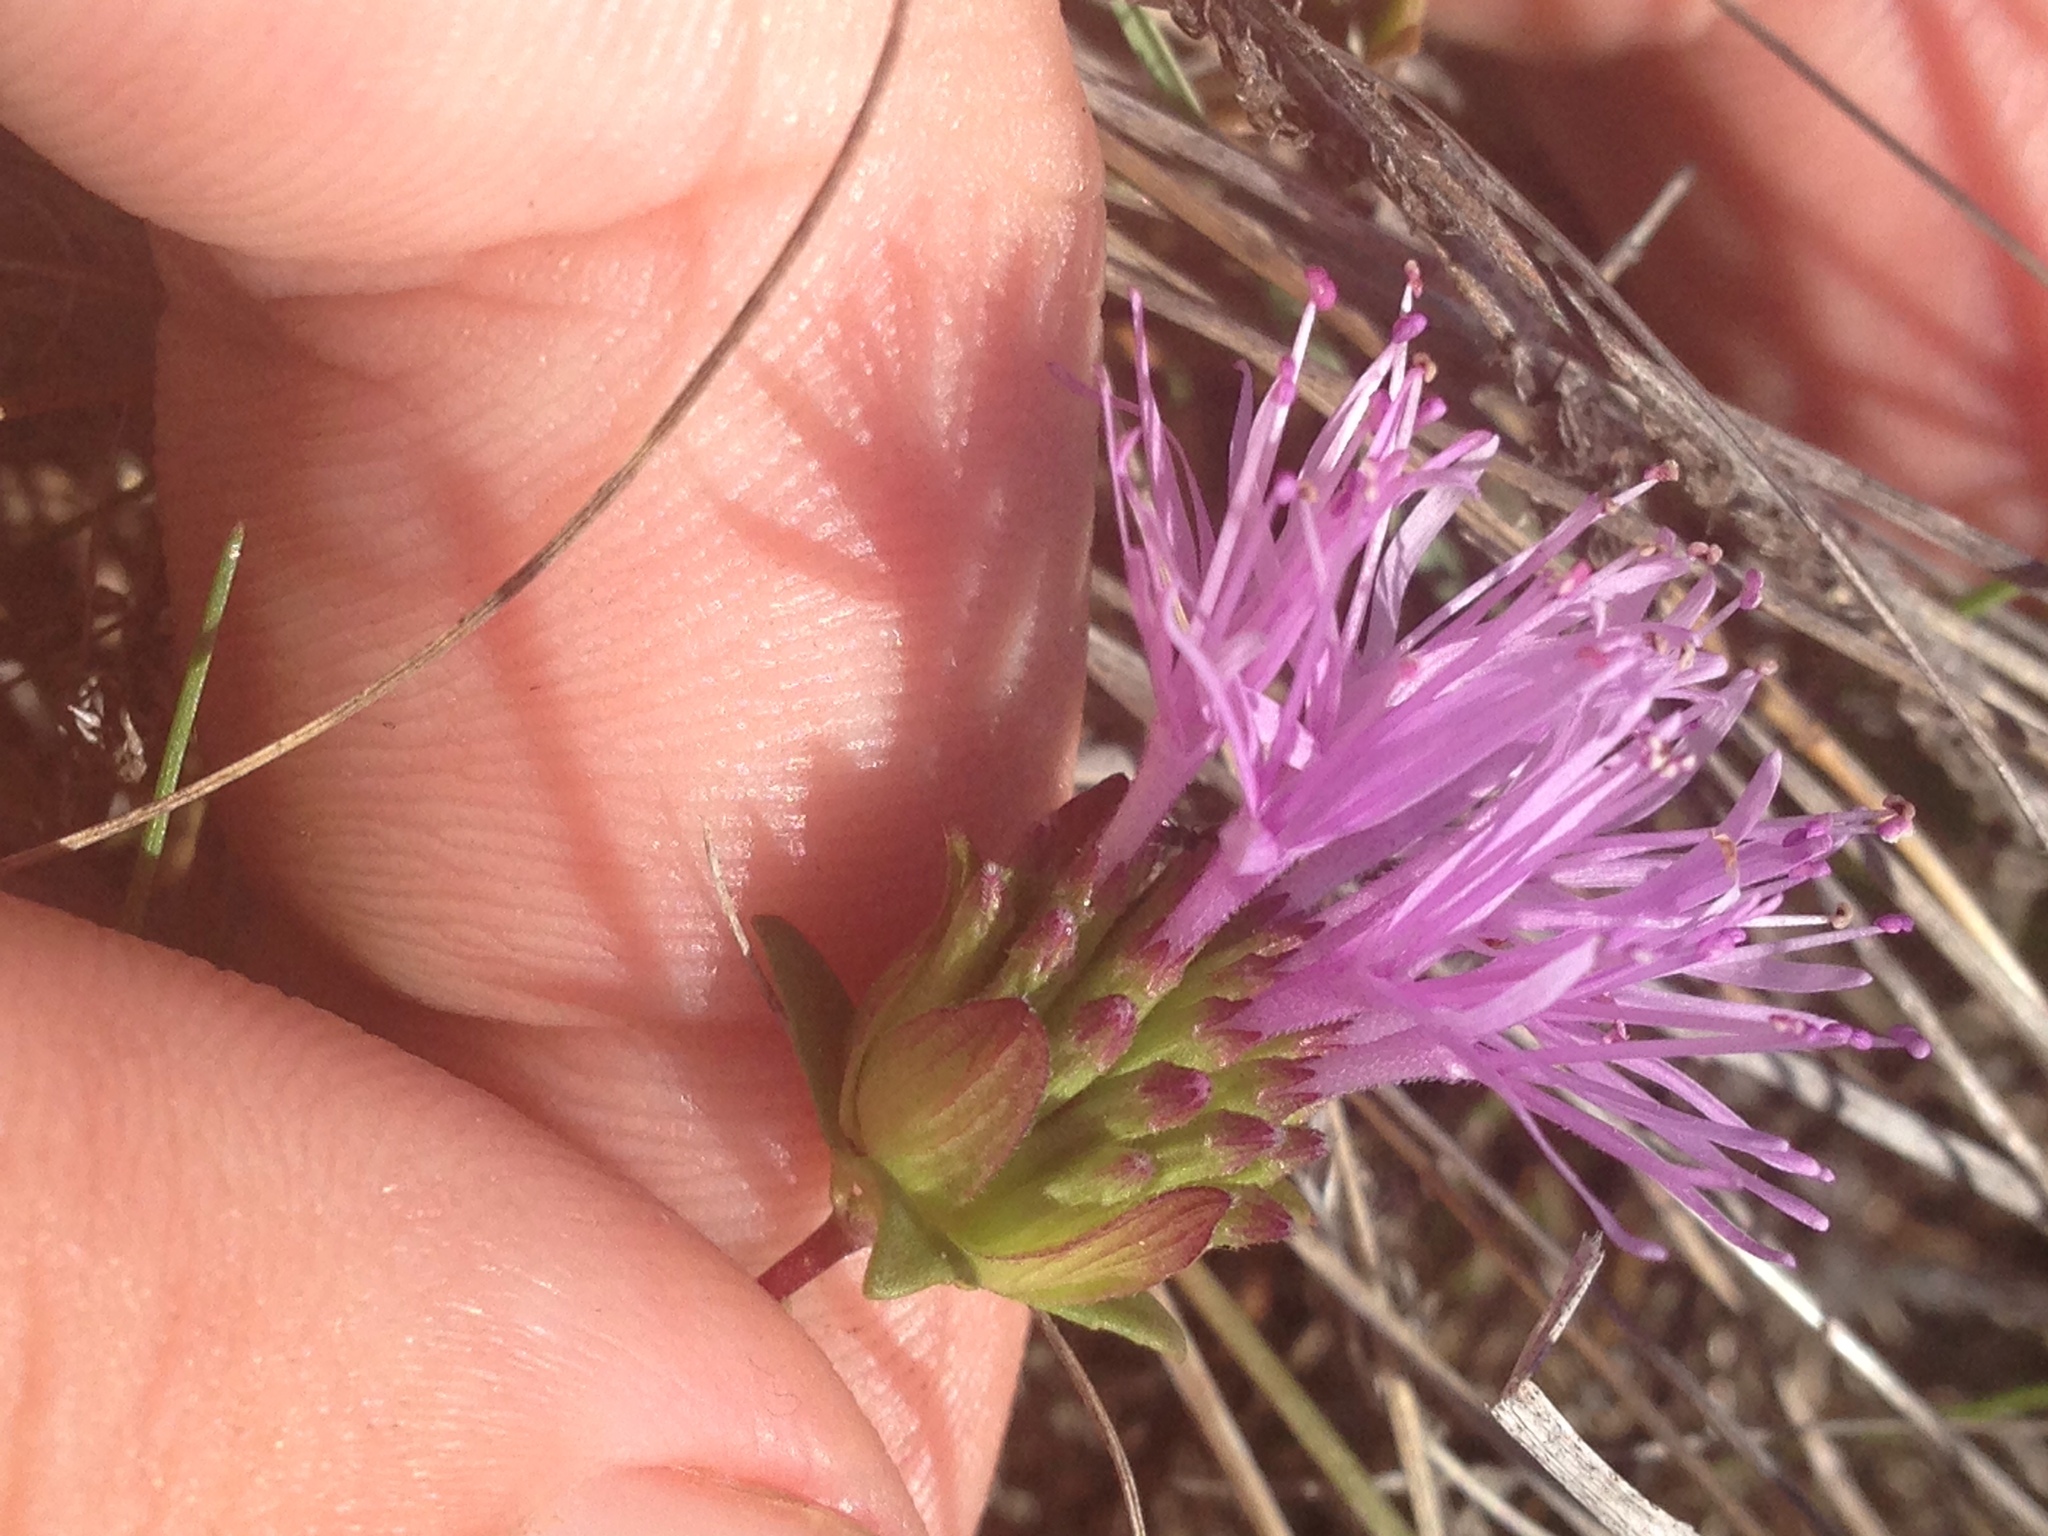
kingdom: Plantae
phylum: Tracheophyta
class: Magnoliopsida
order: Lamiales
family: Lamiaceae
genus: Monardella
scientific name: Monardella purpurea
